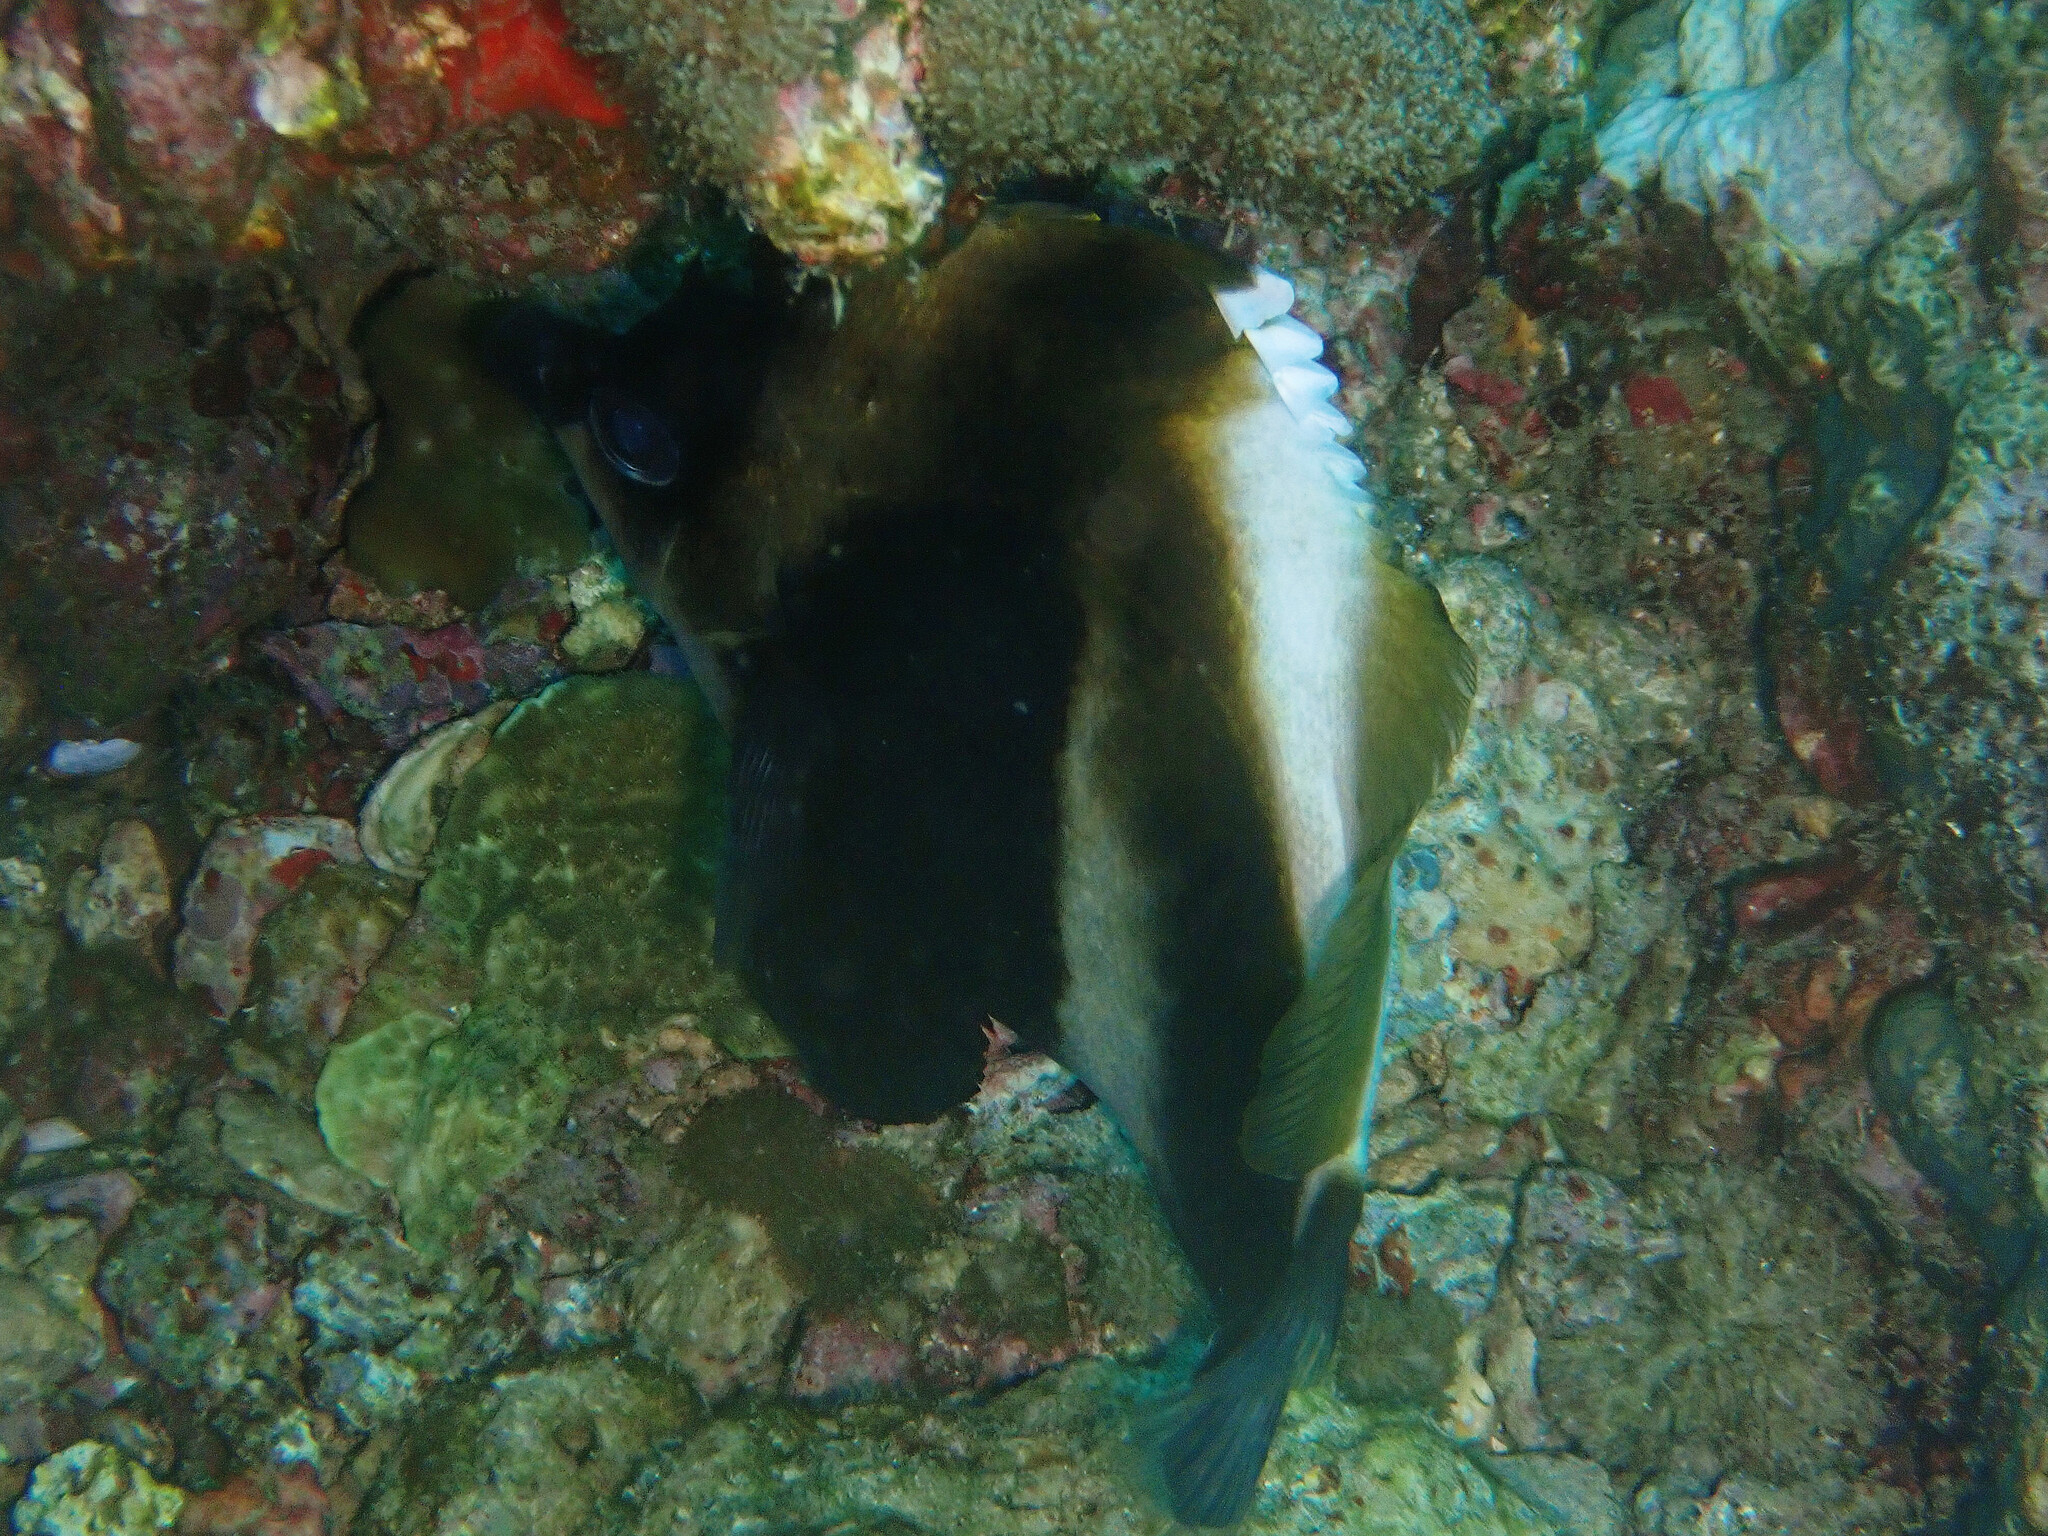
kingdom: Animalia
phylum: Chordata
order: Perciformes
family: Chaetodontidae
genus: Heniochus
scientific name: Heniochus pleurotaenia
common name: Indian ocean bannerfish
